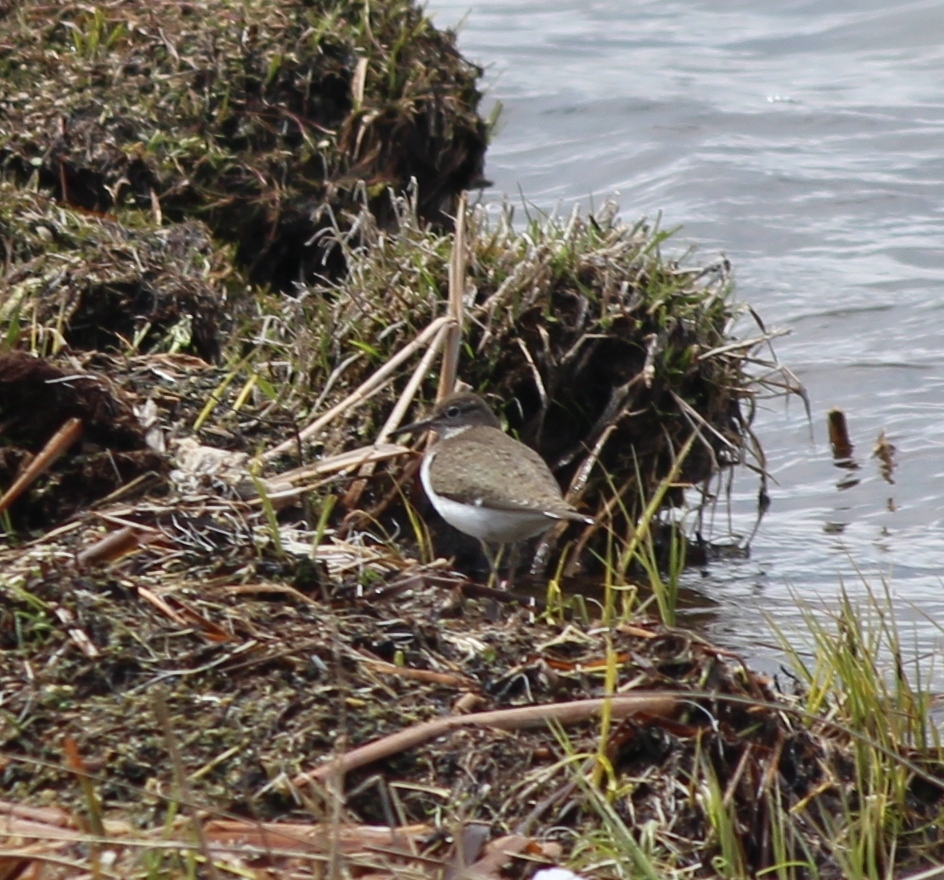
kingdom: Animalia
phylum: Chordata
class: Aves
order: Charadriiformes
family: Scolopacidae
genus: Actitis
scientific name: Actitis hypoleucos
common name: Common sandpiper
